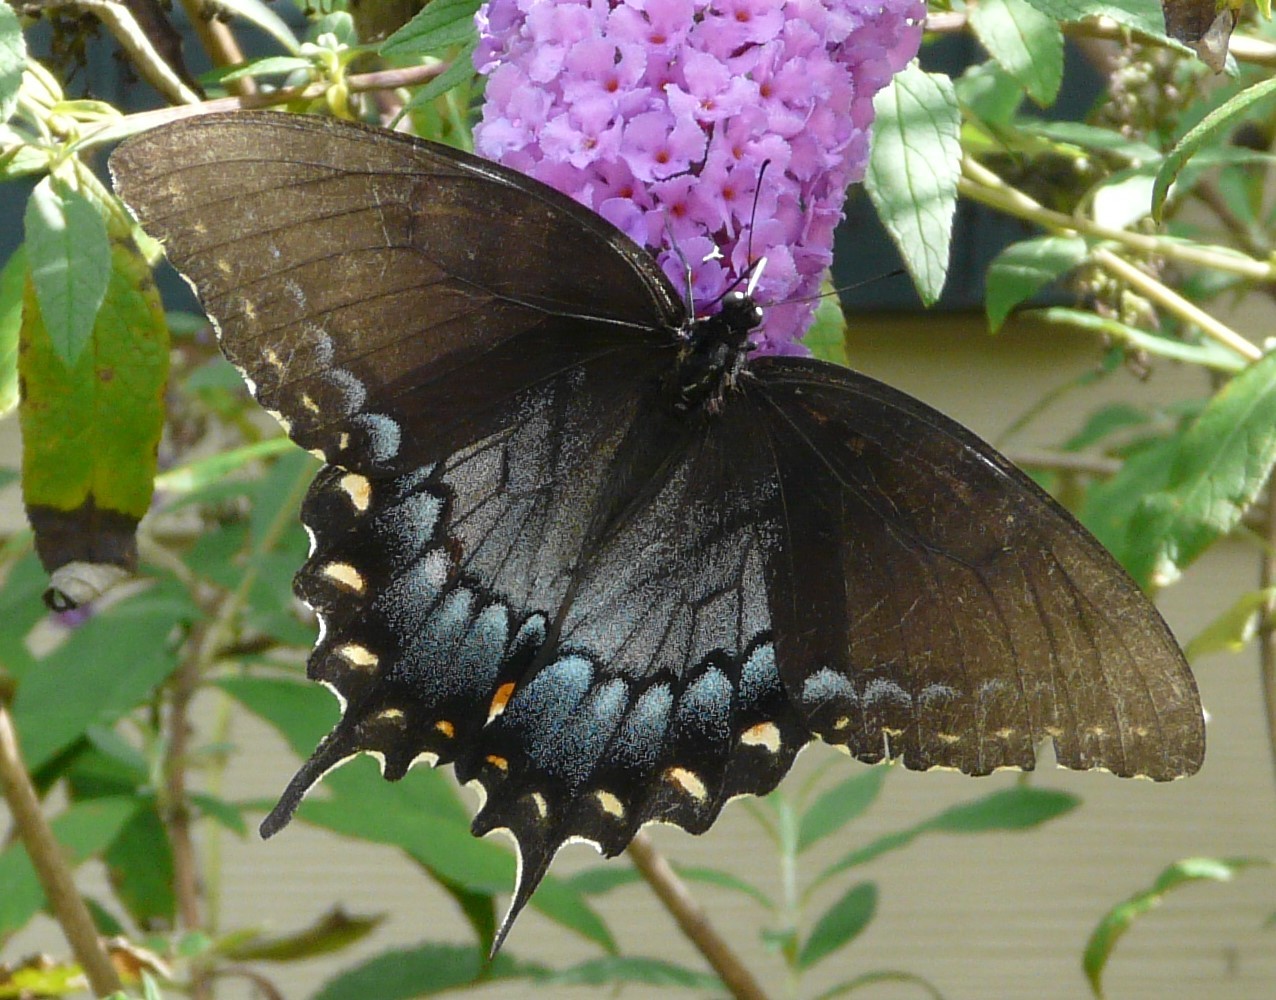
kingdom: Animalia
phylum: Arthropoda
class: Insecta
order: Lepidoptera
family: Papilionidae
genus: Papilio
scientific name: Papilio glaucus
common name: Tiger swallowtail
